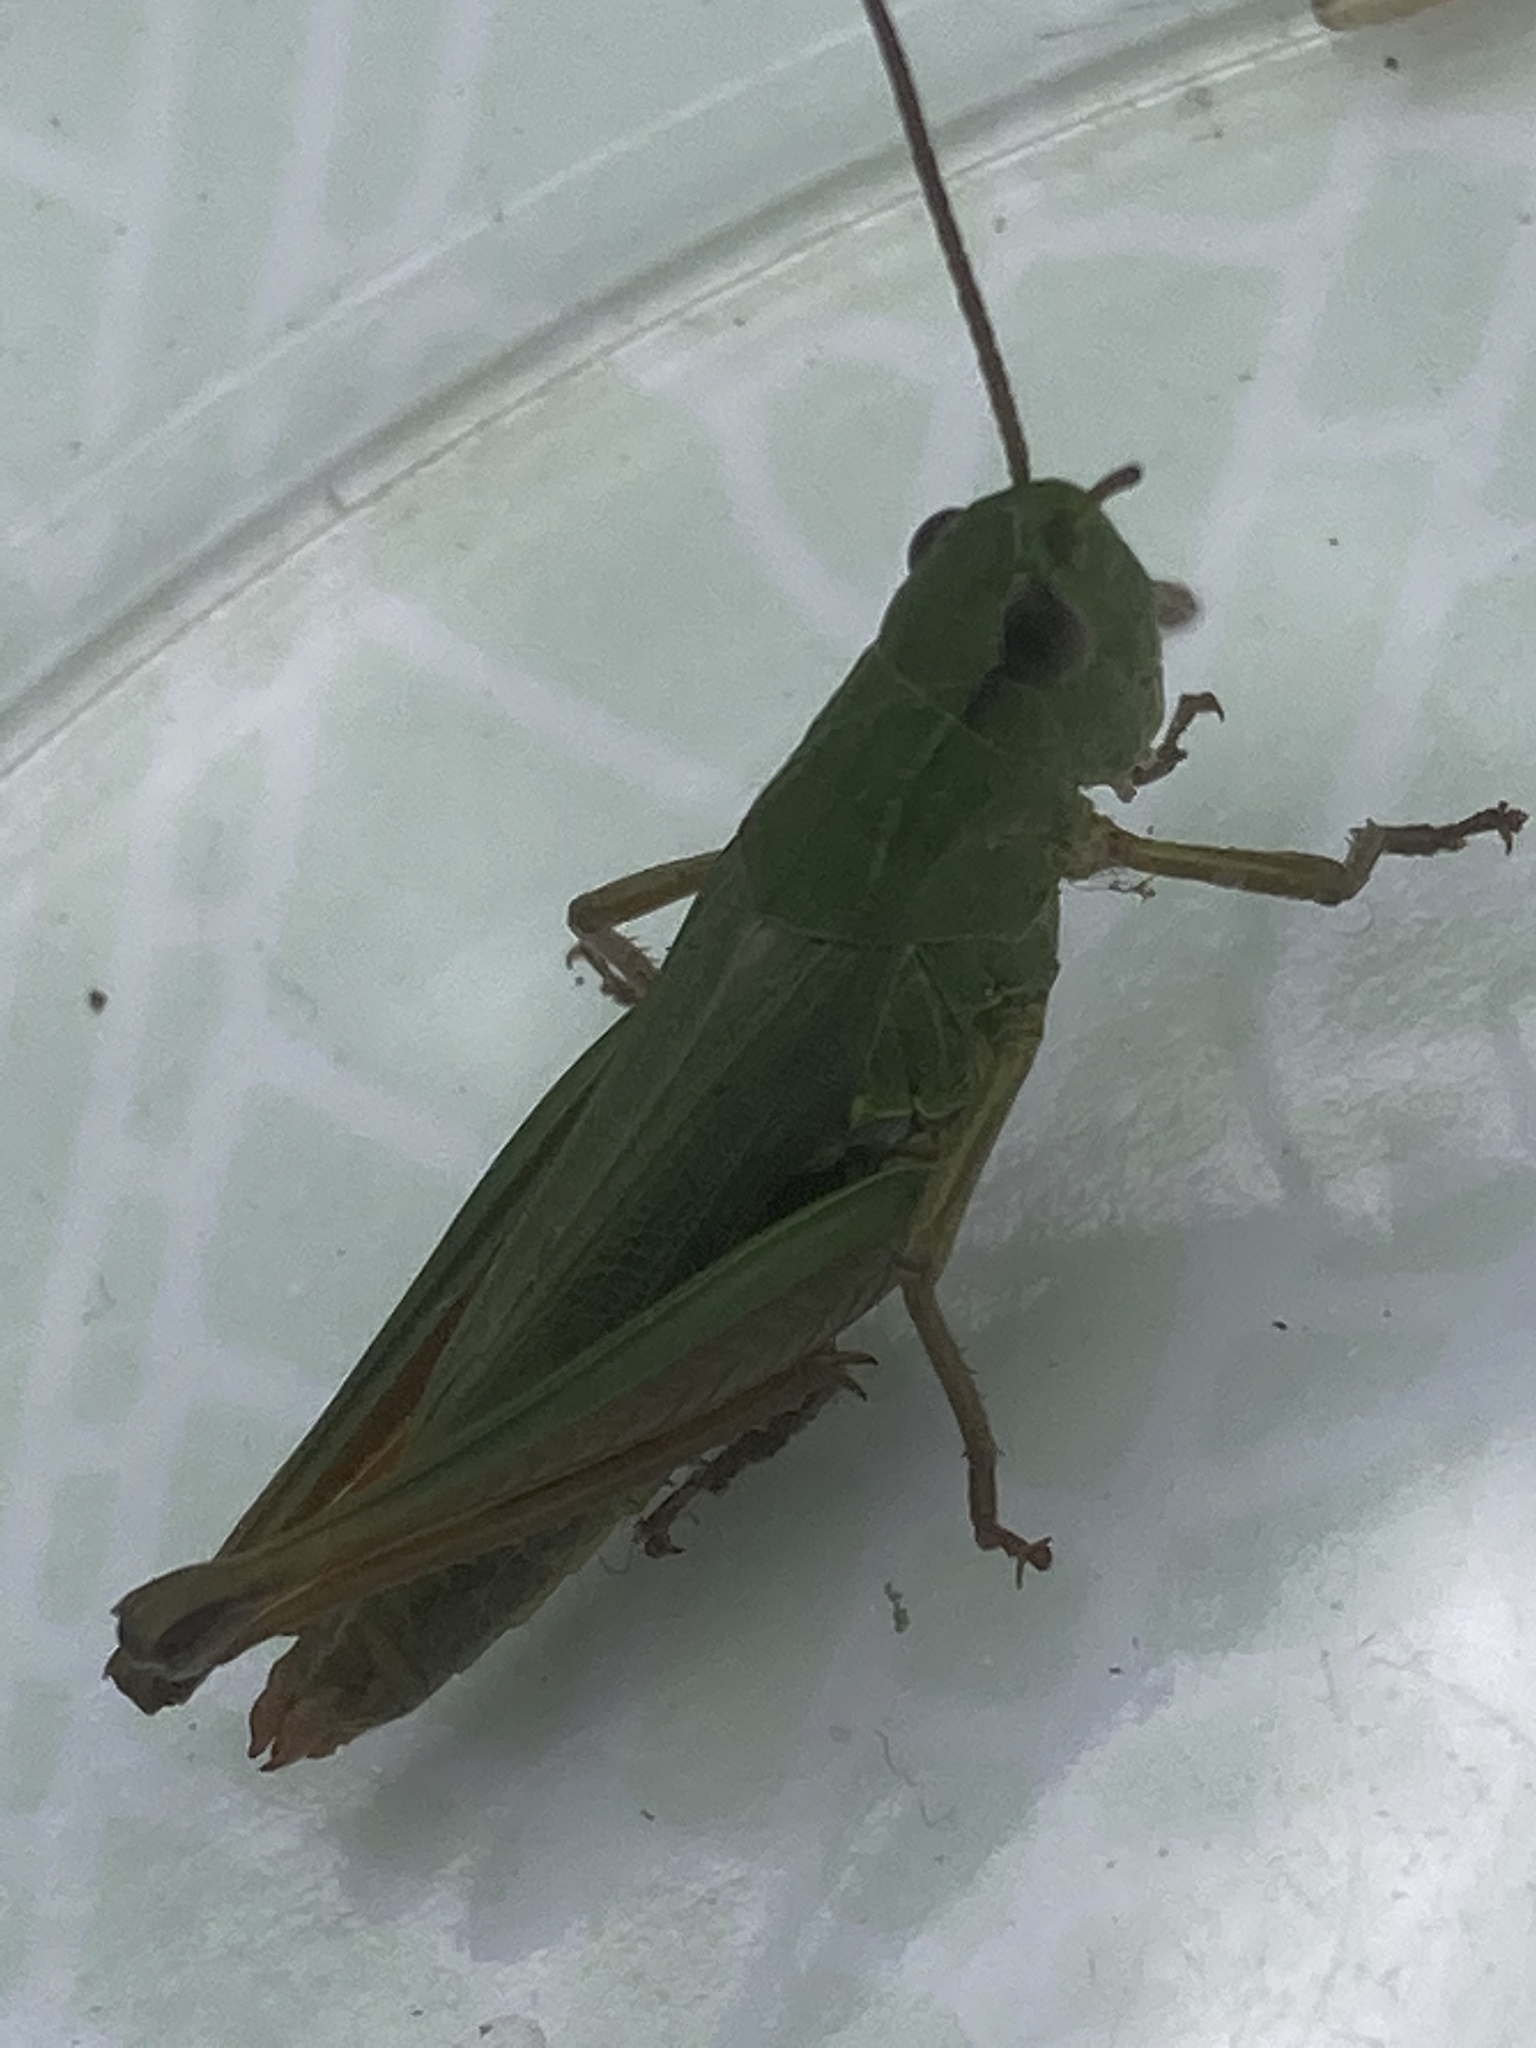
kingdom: Animalia
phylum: Arthropoda
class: Insecta
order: Orthoptera
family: Acrididae
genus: Pseudochorthippus
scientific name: Pseudochorthippus montanus
